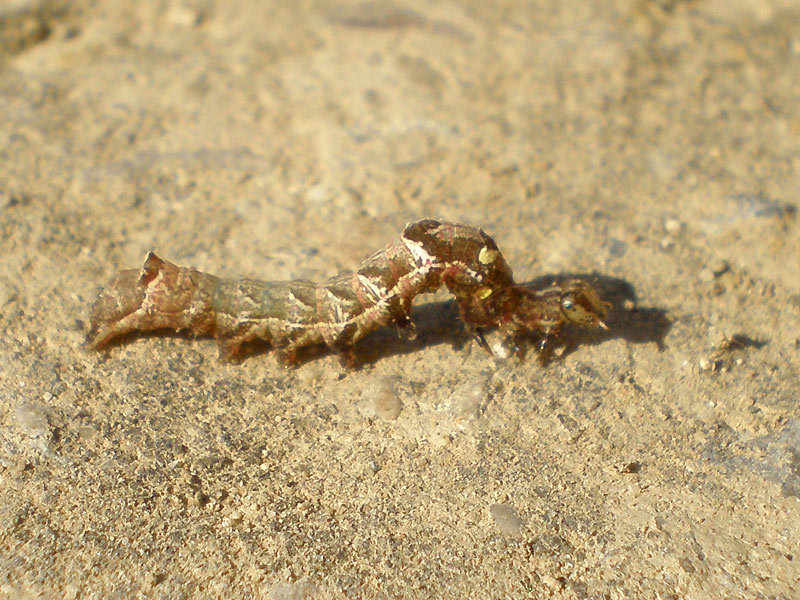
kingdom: Animalia
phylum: Arthropoda
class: Insecta
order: Lepidoptera
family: Noctuidae
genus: Abrostola
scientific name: Abrostola triplasia
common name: Dark spectacle
